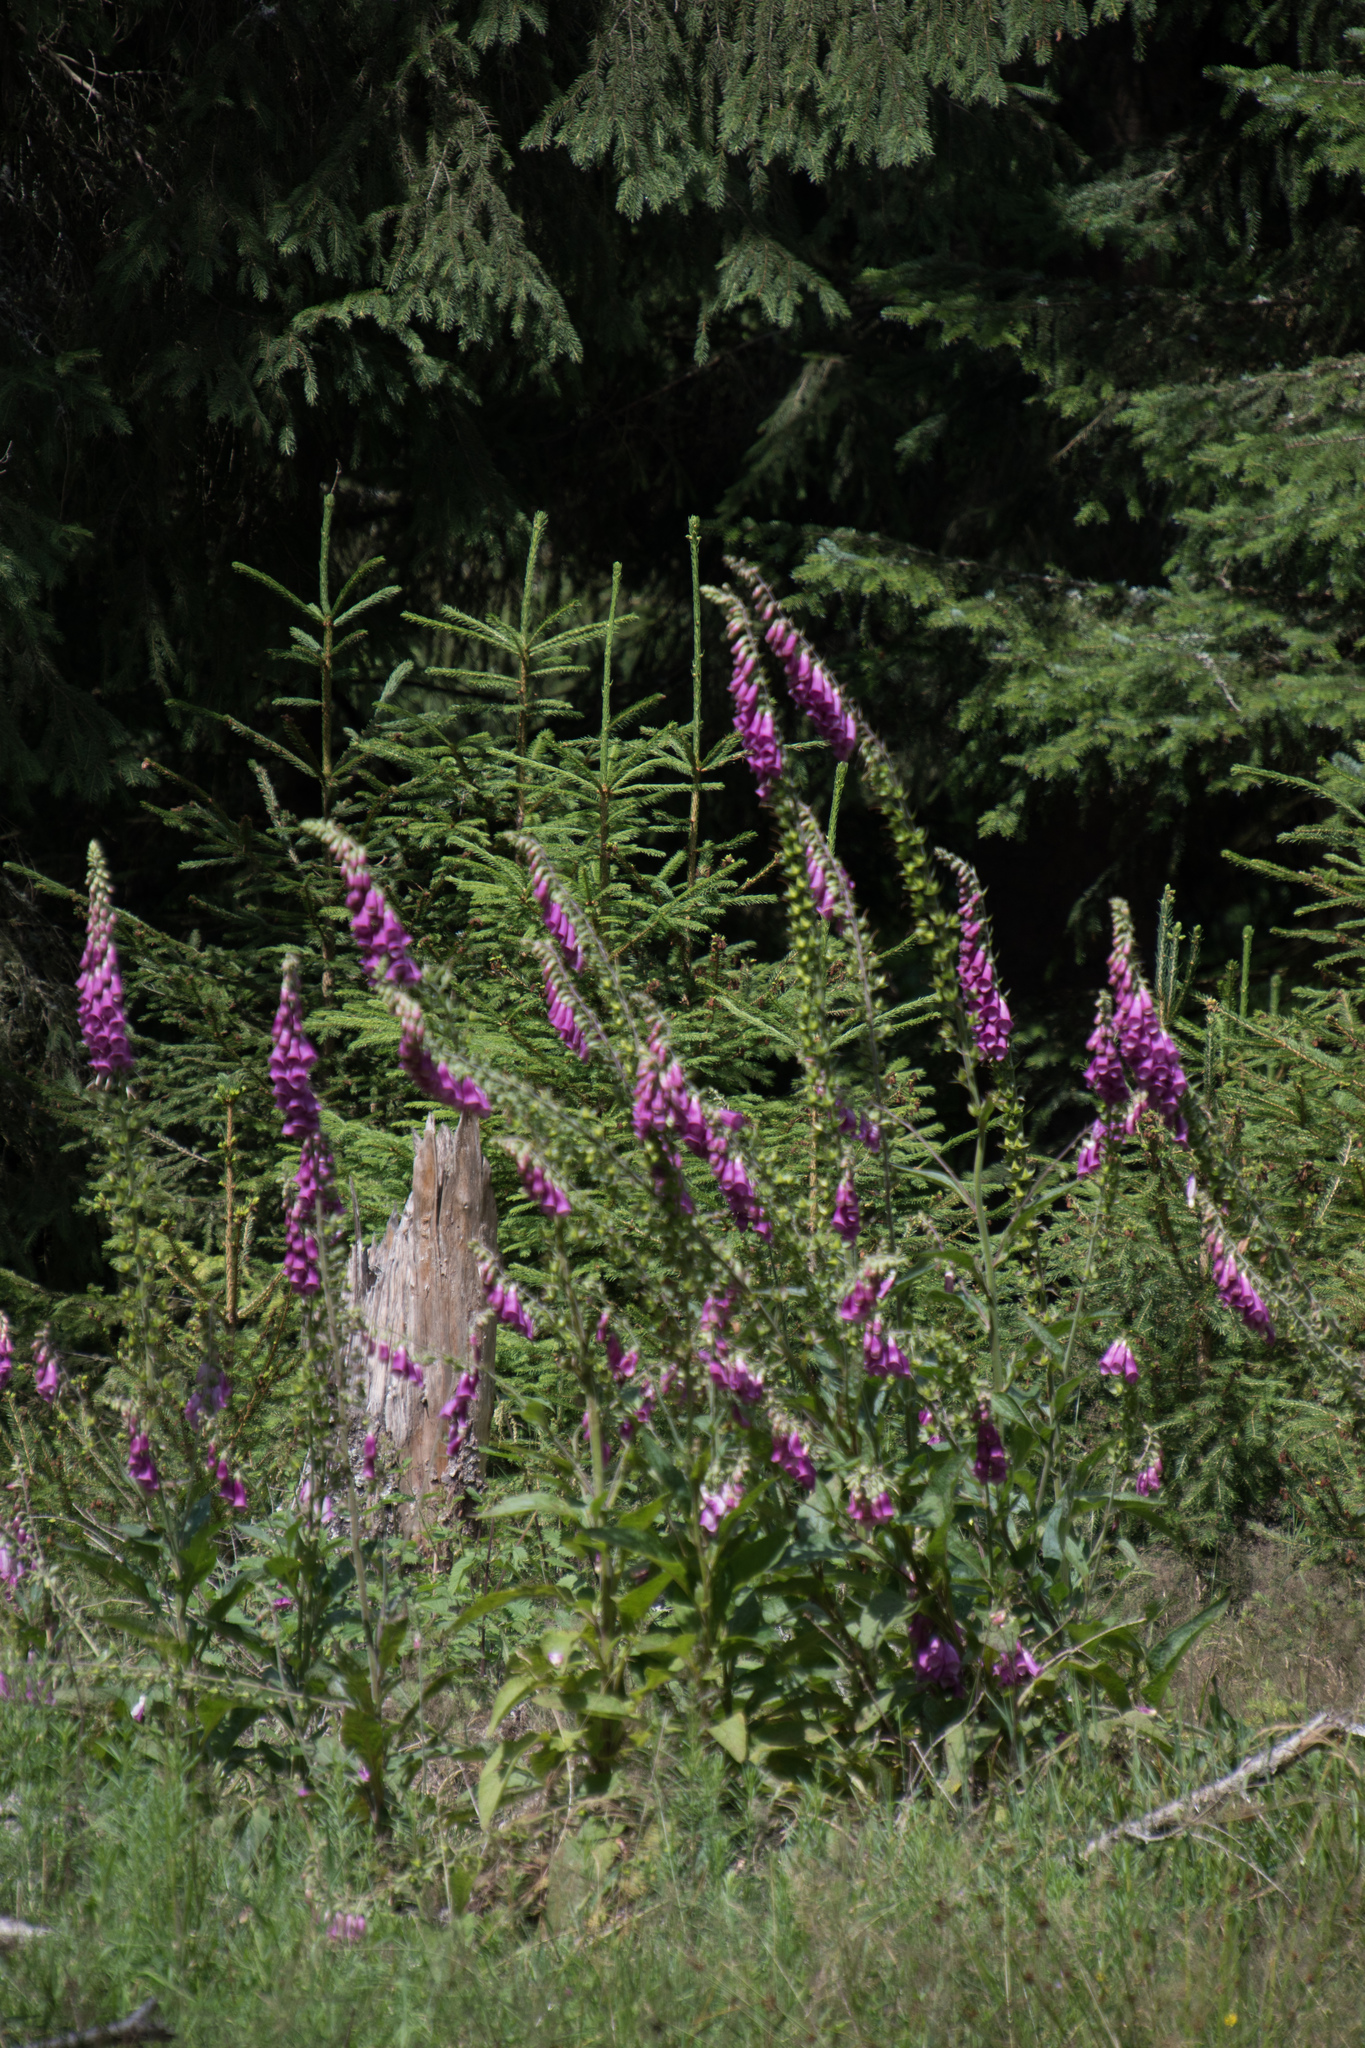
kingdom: Plantae
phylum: Tracheophyta
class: Magnoliopsida
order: Lamiales
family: Plantaginaceae
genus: Digitalis
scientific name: Digitalis purpurea
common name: Foxglove
